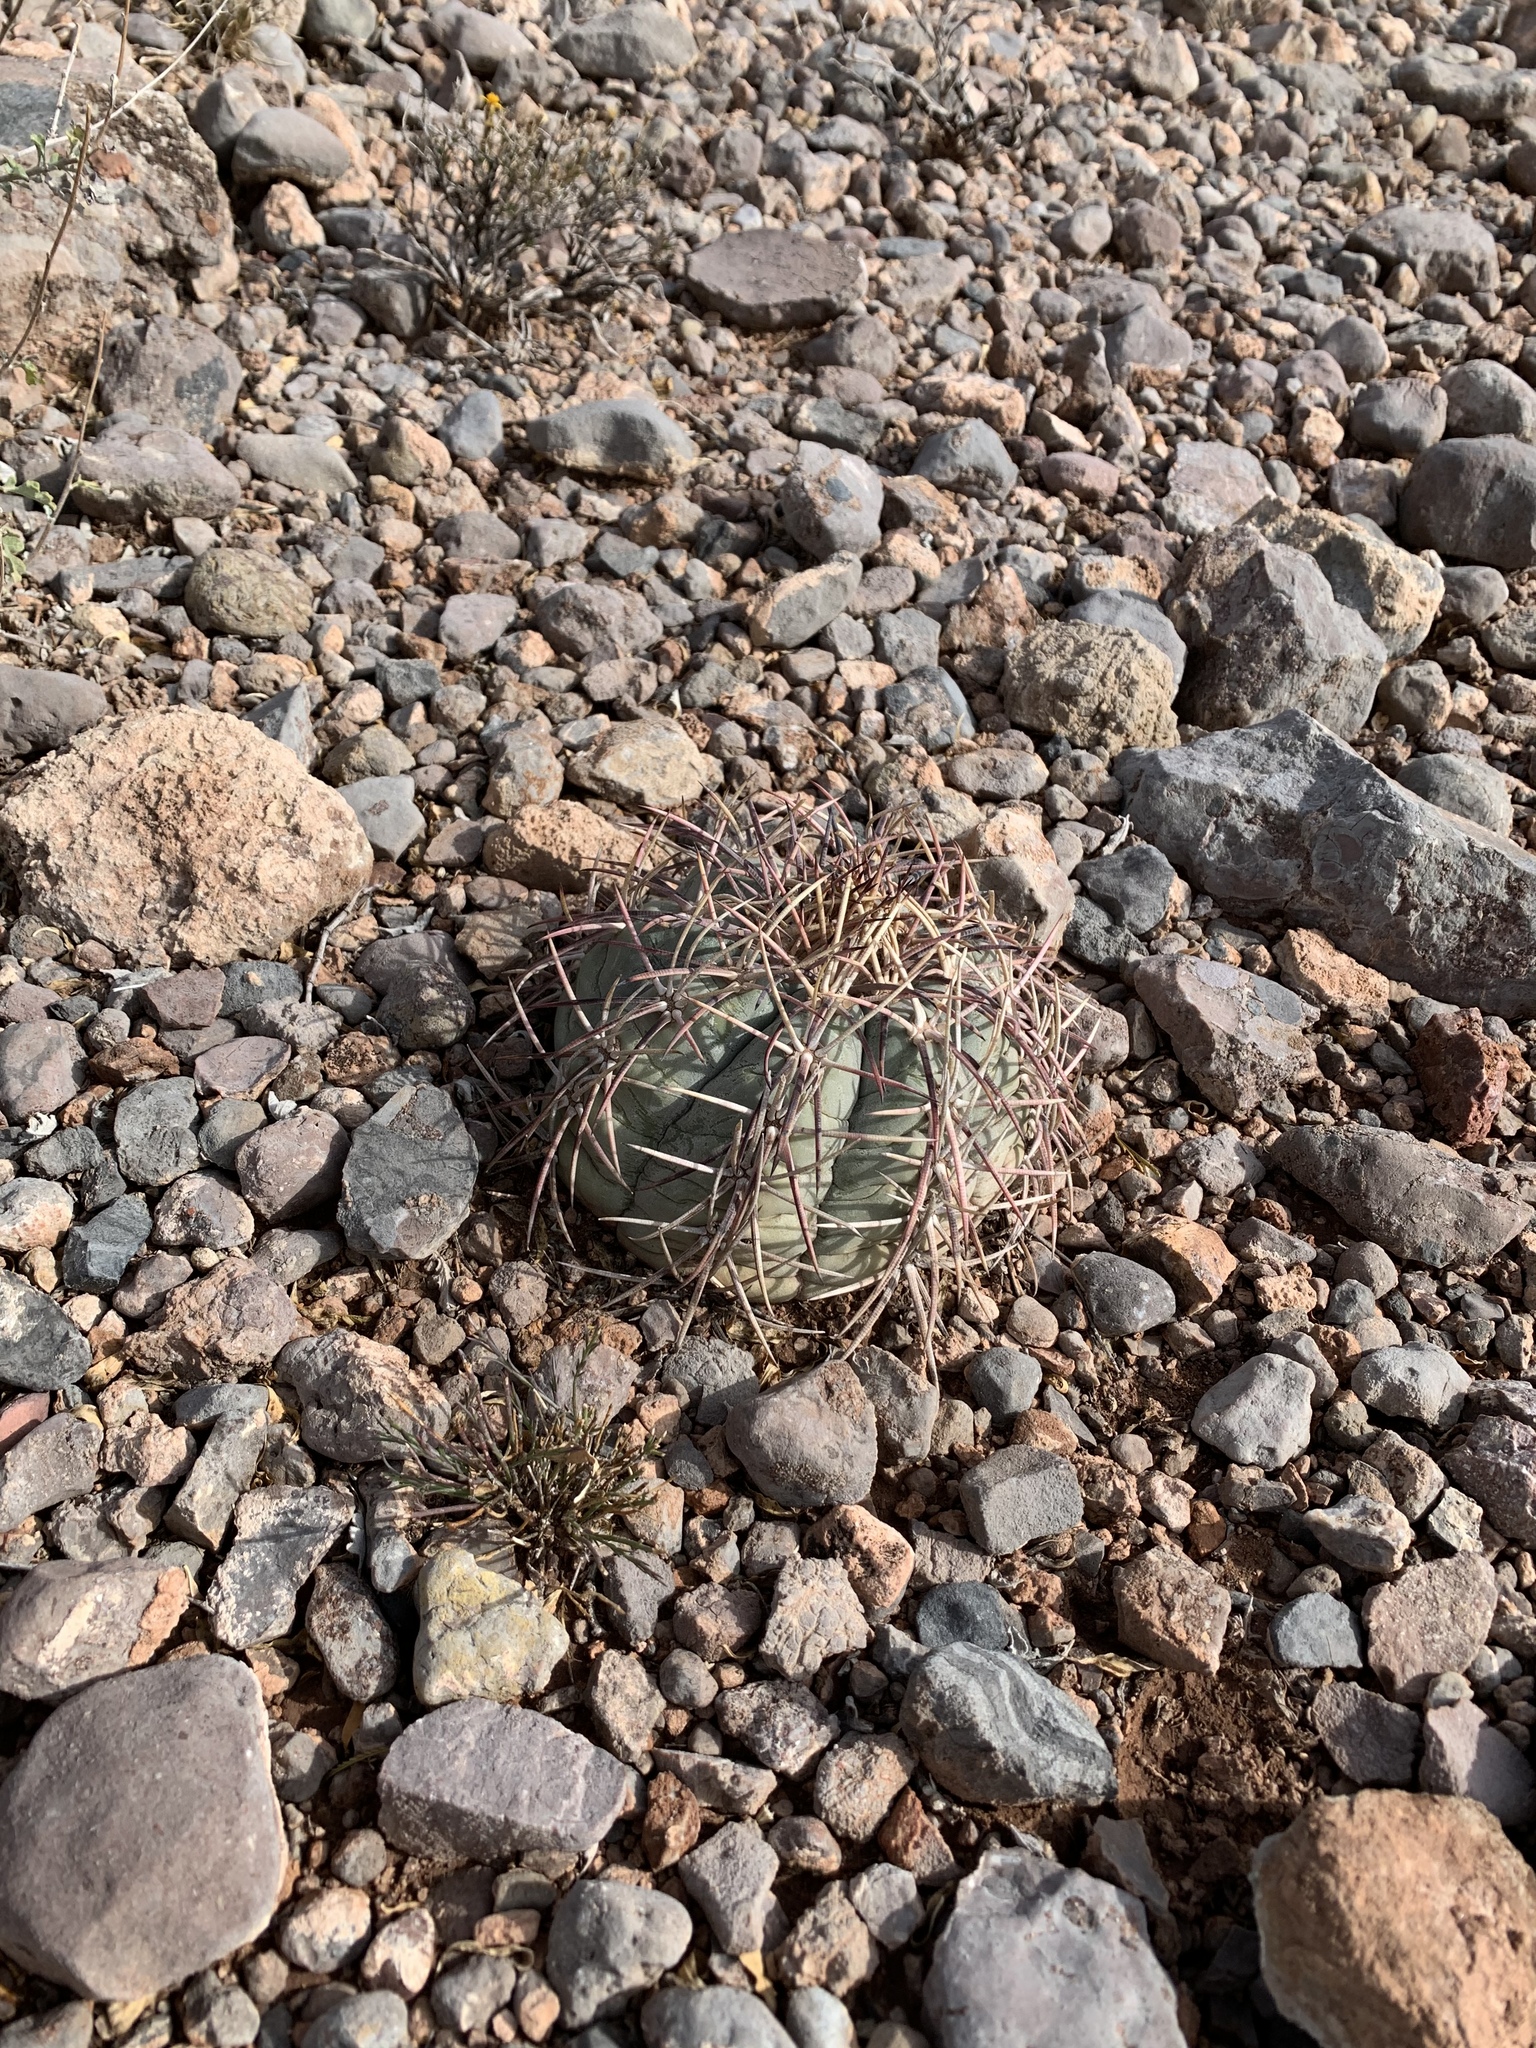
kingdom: Plantae
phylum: Tracheophyta
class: Magnoliopsida
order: Caryophyllales
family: Cactaceae
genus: Echinocactus
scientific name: Echinocactus horizonthalonius
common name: Devilshead
